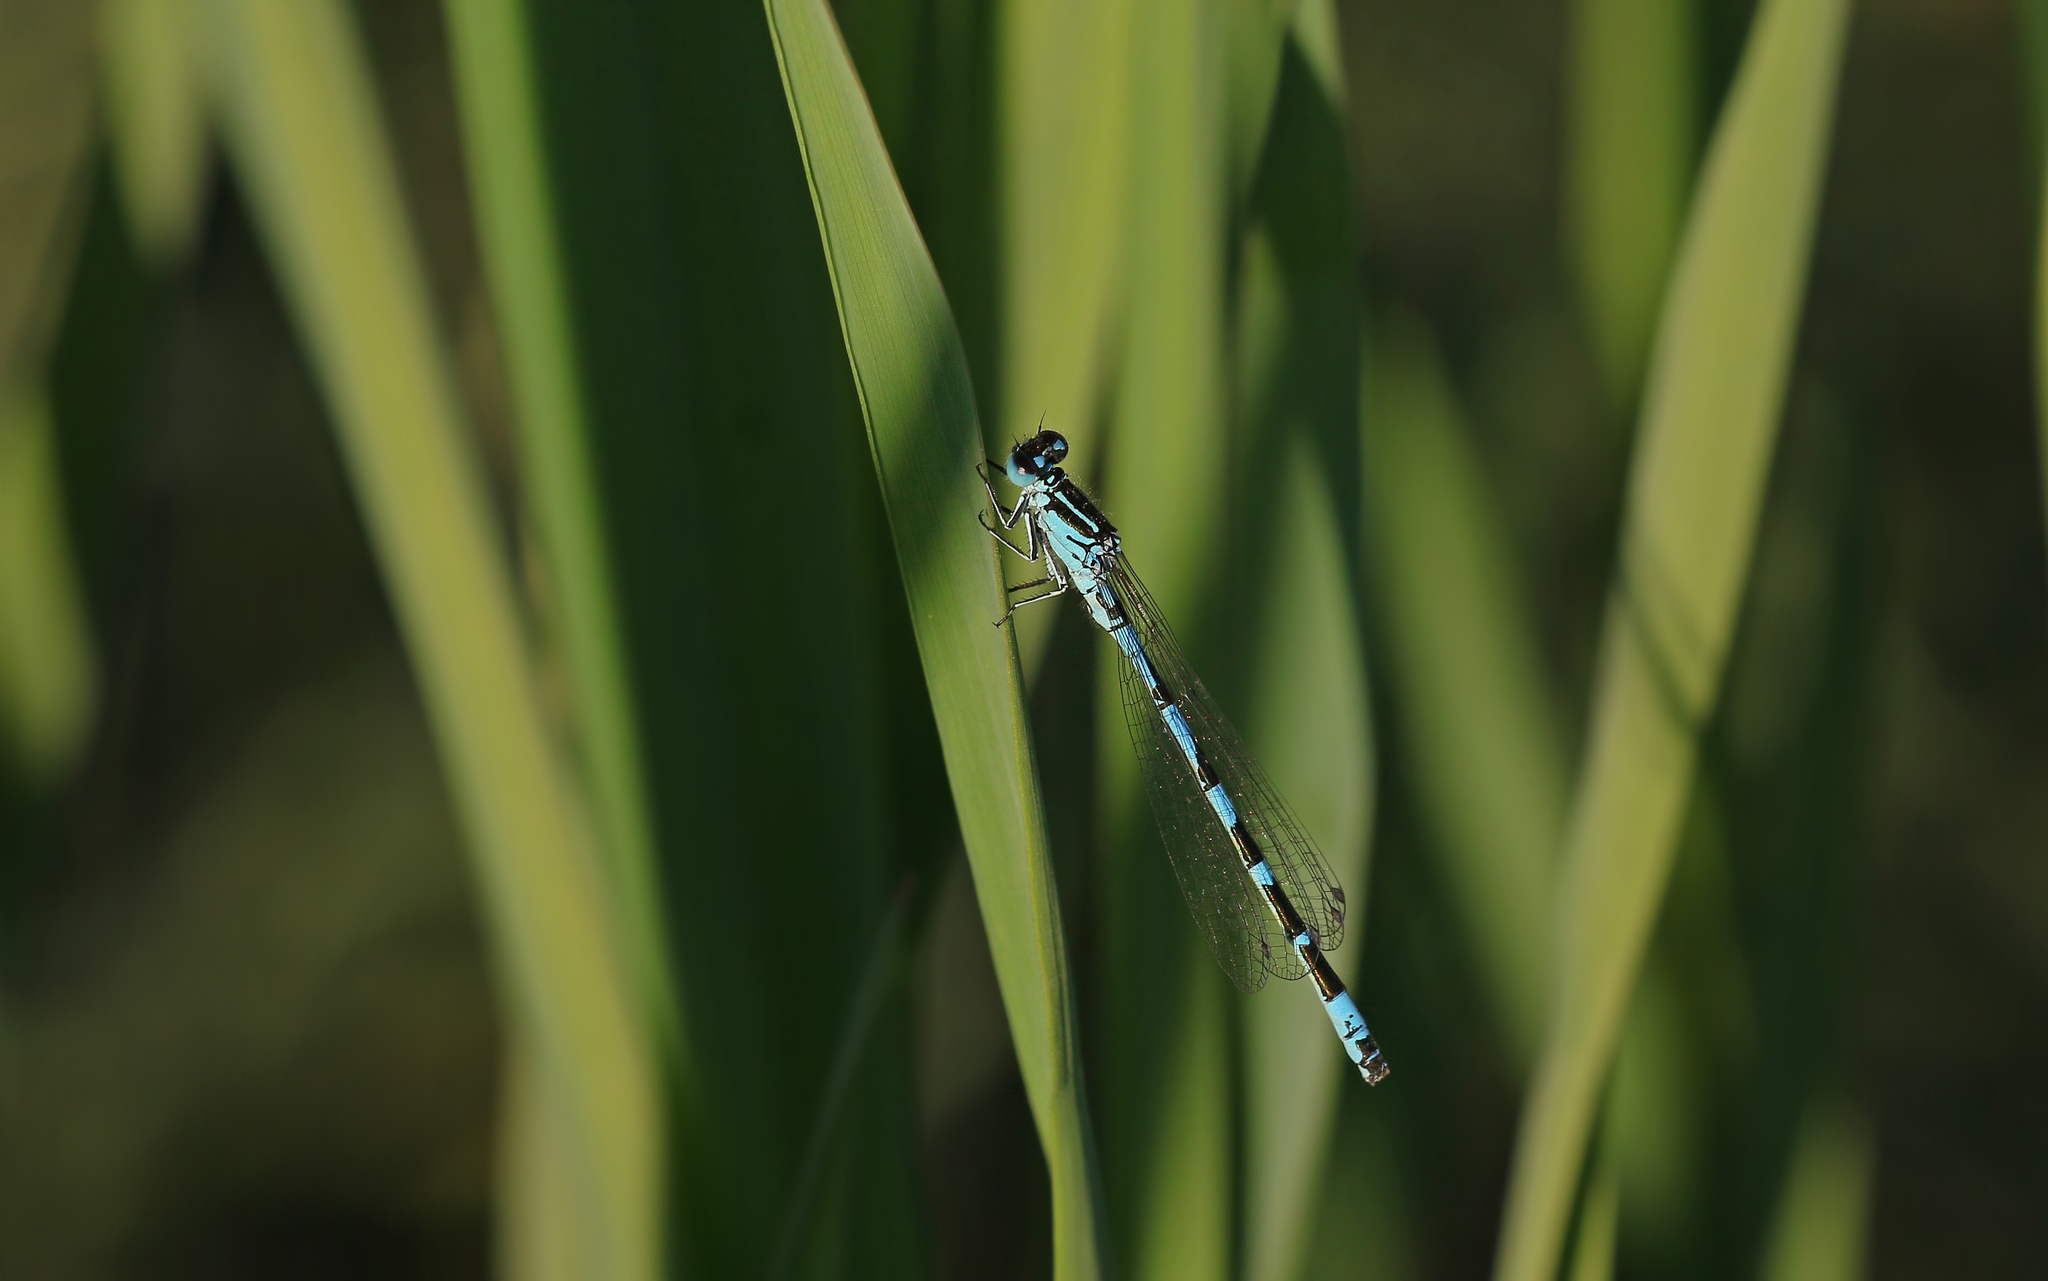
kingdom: Animalia
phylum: Arthropoda
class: Insecta
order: Odonata
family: Coenagrionidae
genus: Coenagrion
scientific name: Coenagrion ornatum
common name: Ornate bluet
